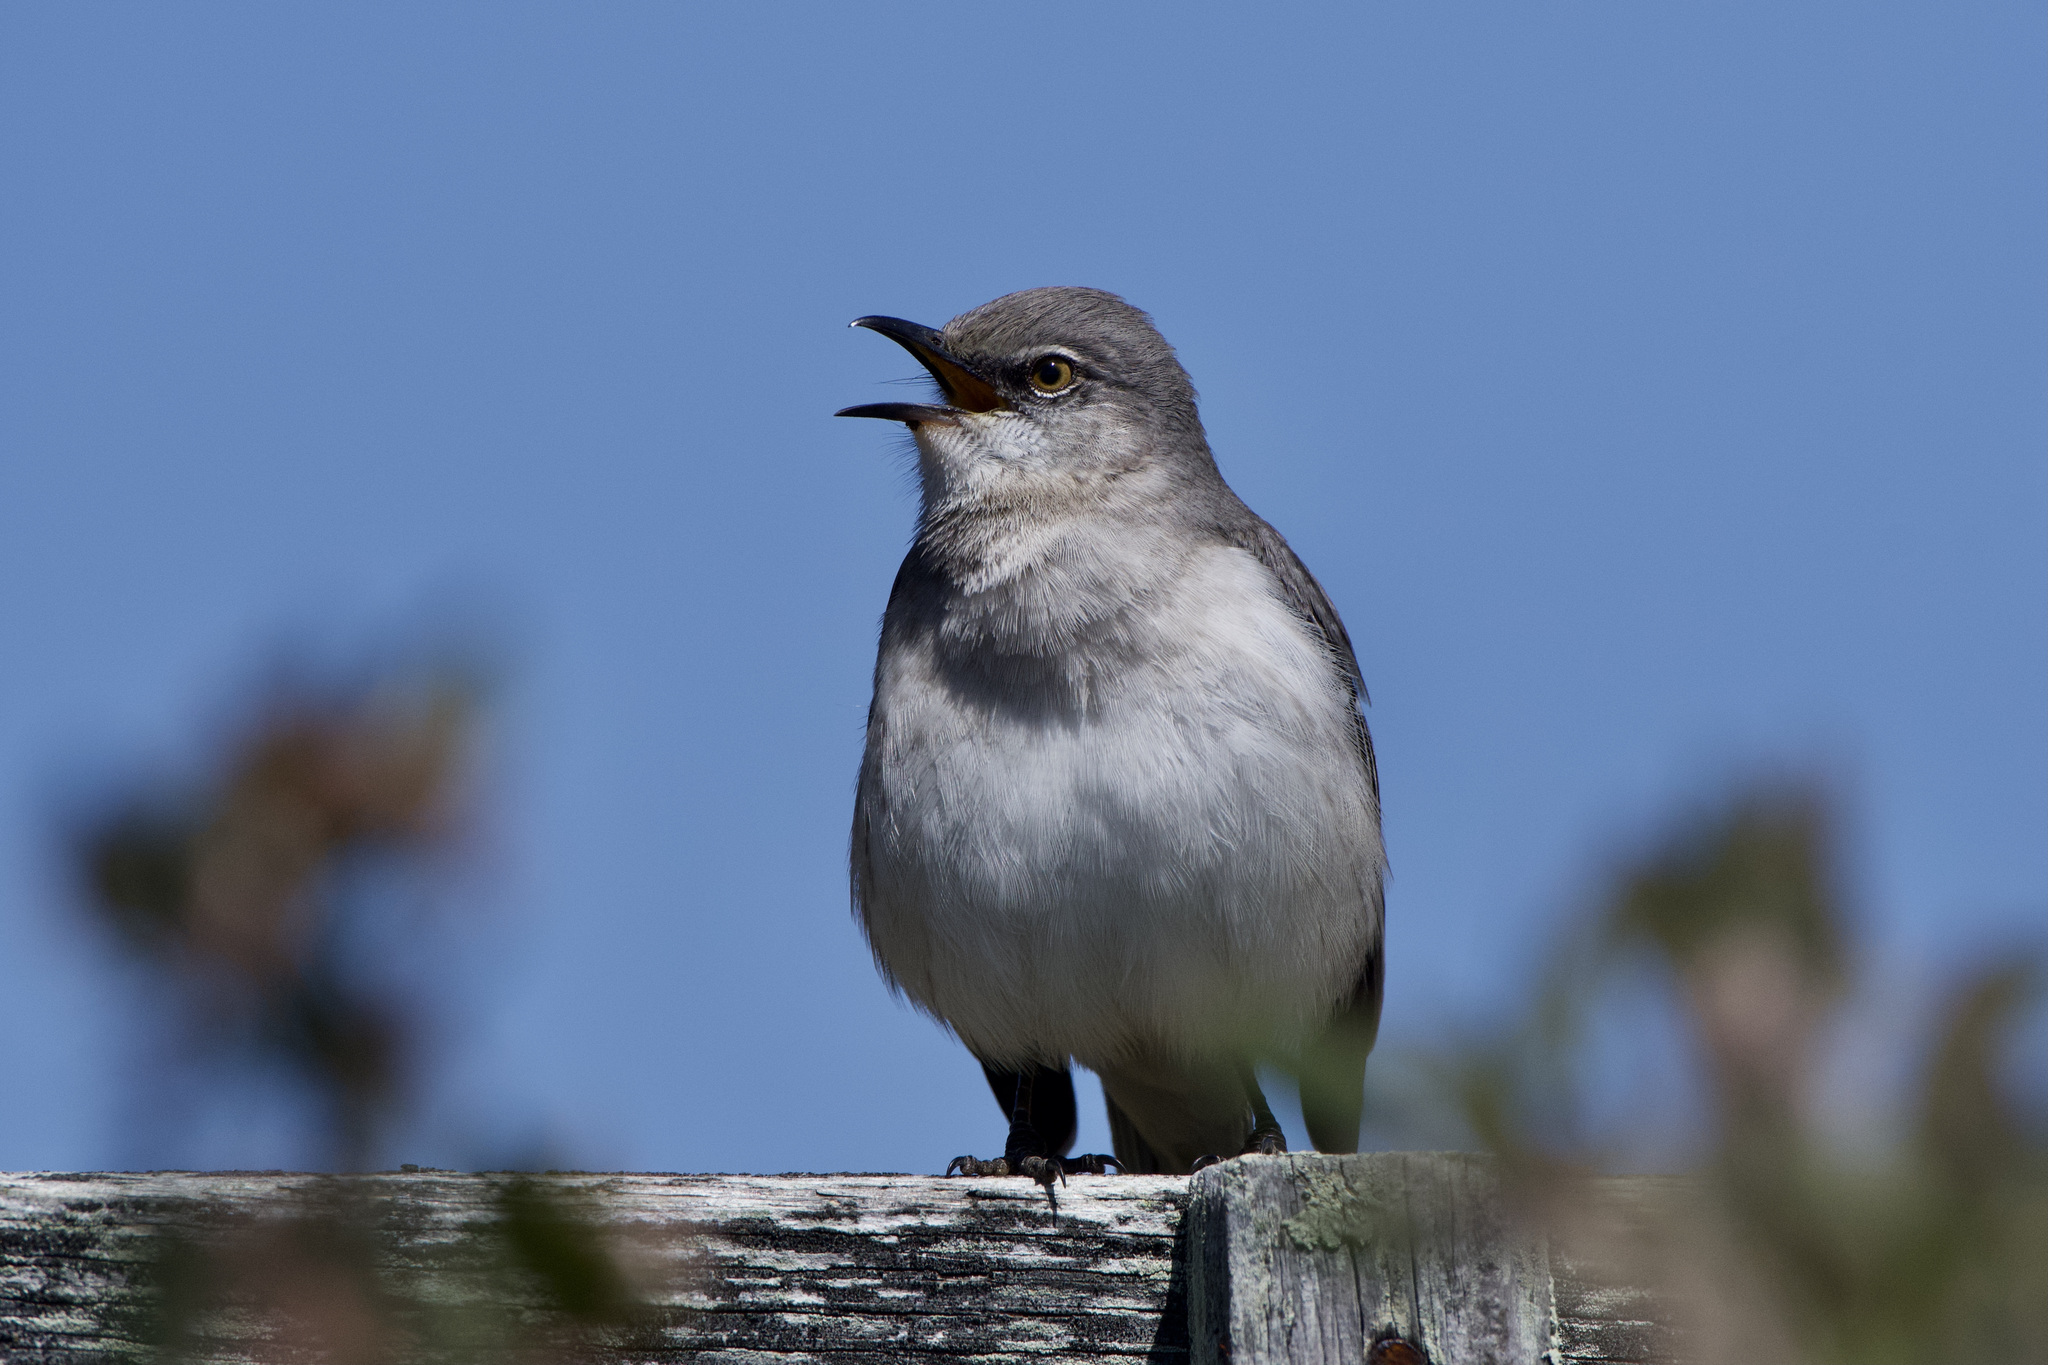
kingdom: Animalia
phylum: Chordata
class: Aves
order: Passeriformes
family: Mimidae
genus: Mimus
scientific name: Mimus polyglottos
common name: Northern mockingbird
